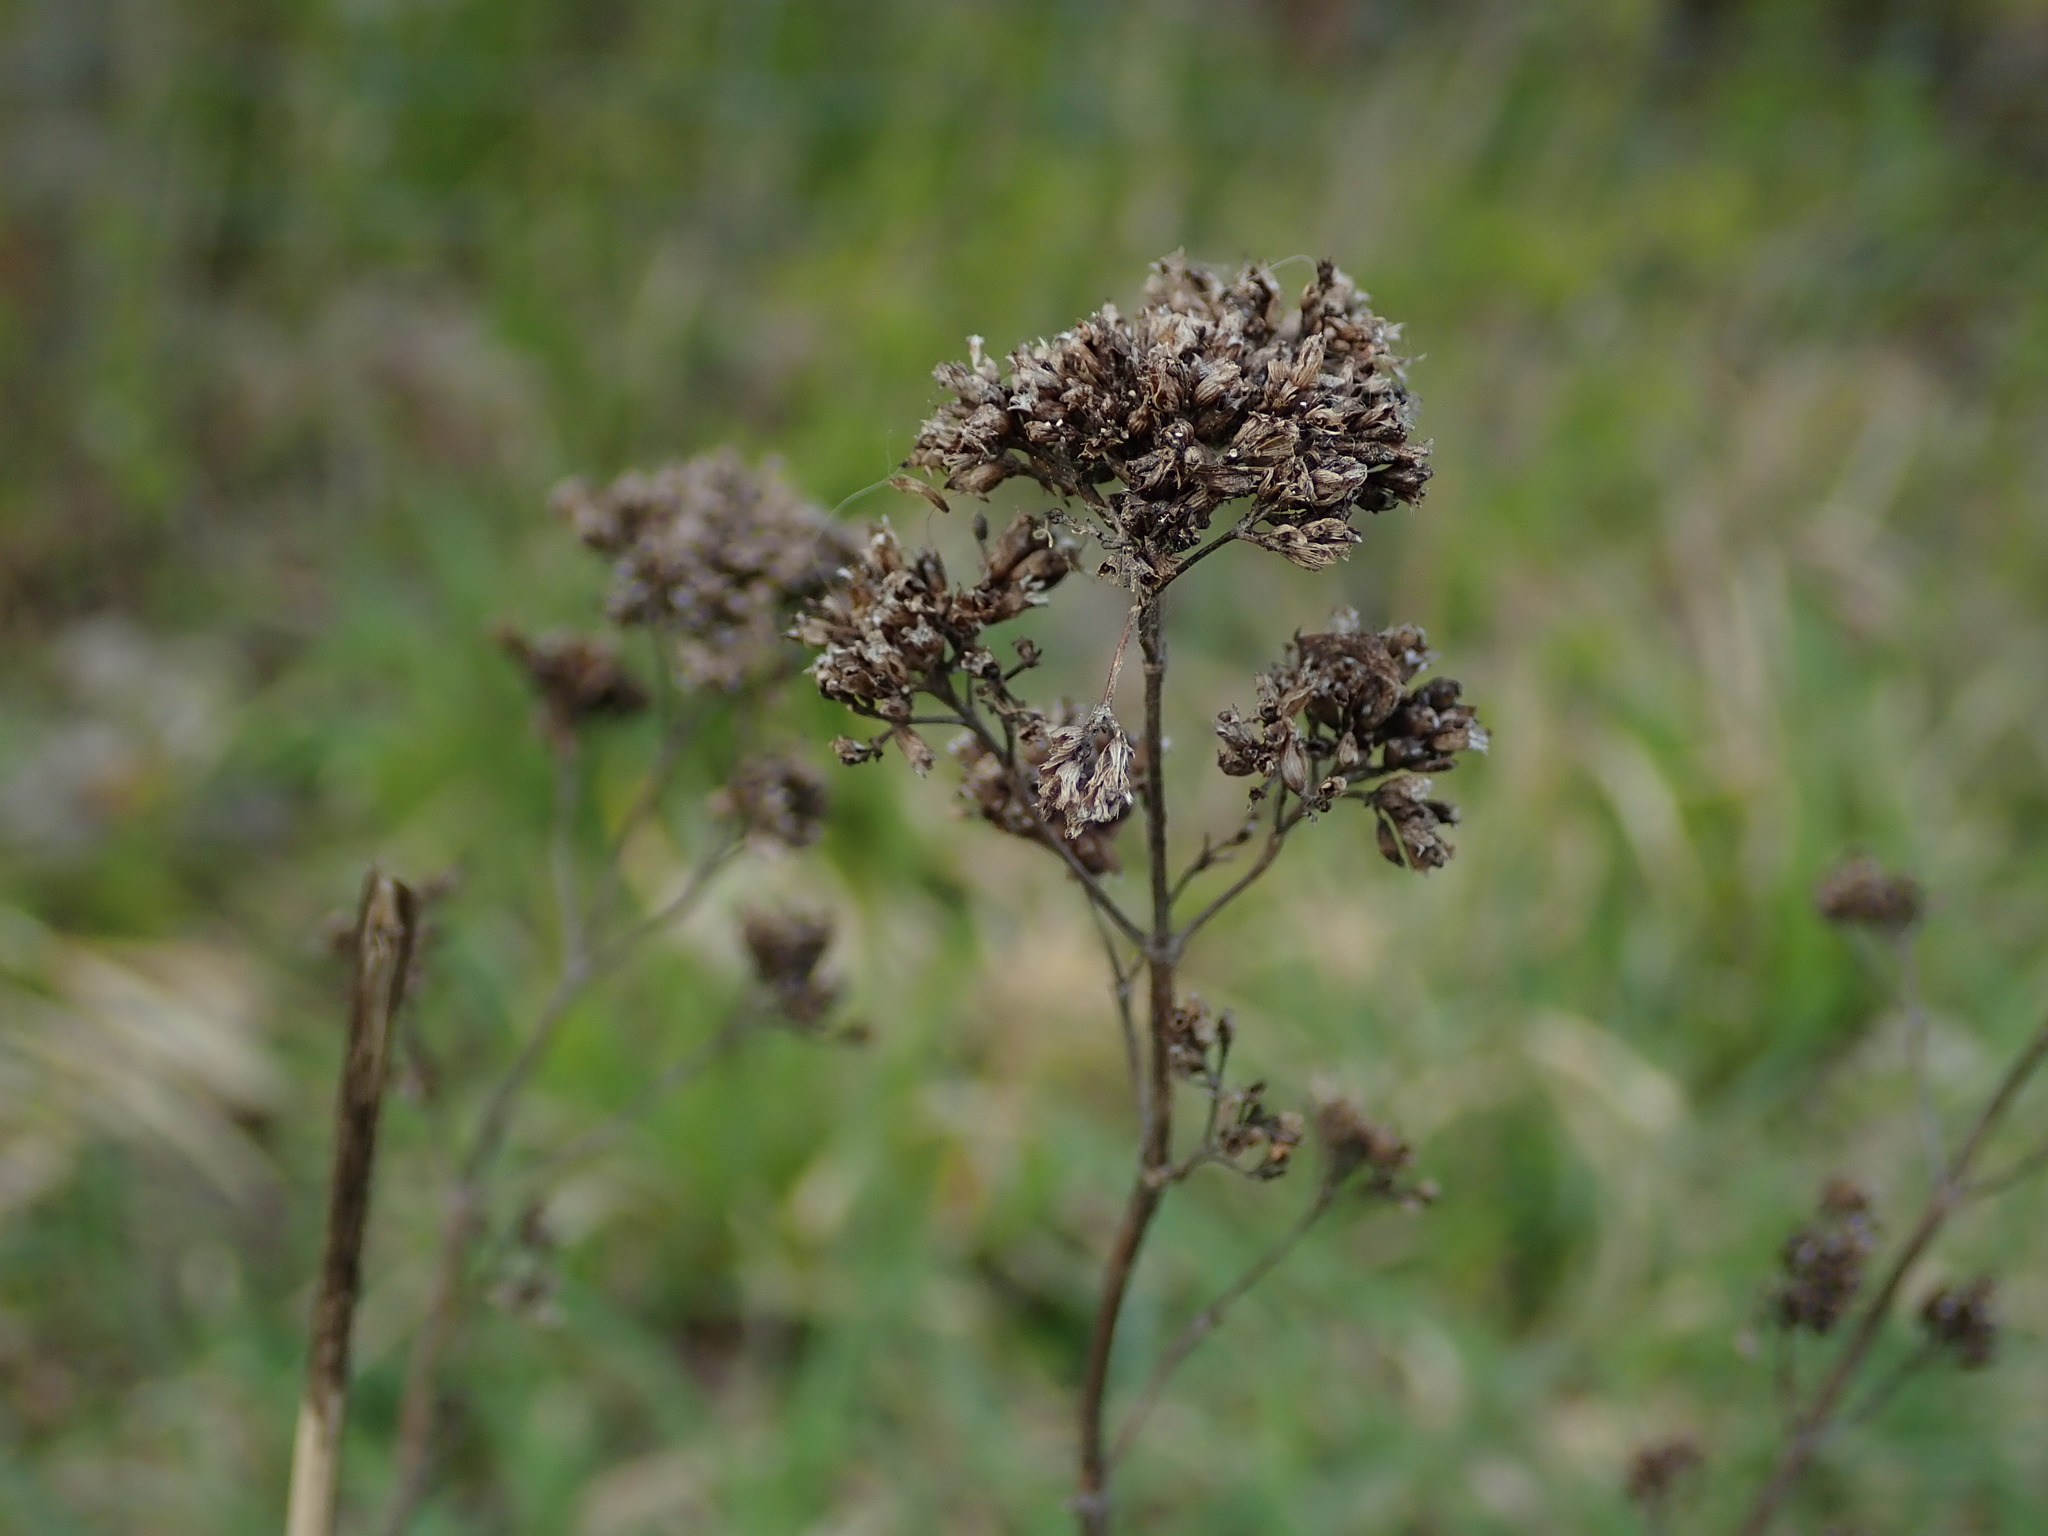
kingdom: Plantae
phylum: Tracheophyta
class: Magnoliopsida
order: Lamiales
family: Lamiaceae
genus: Origanum
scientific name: Origanum vulgare
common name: Wild marjoram
